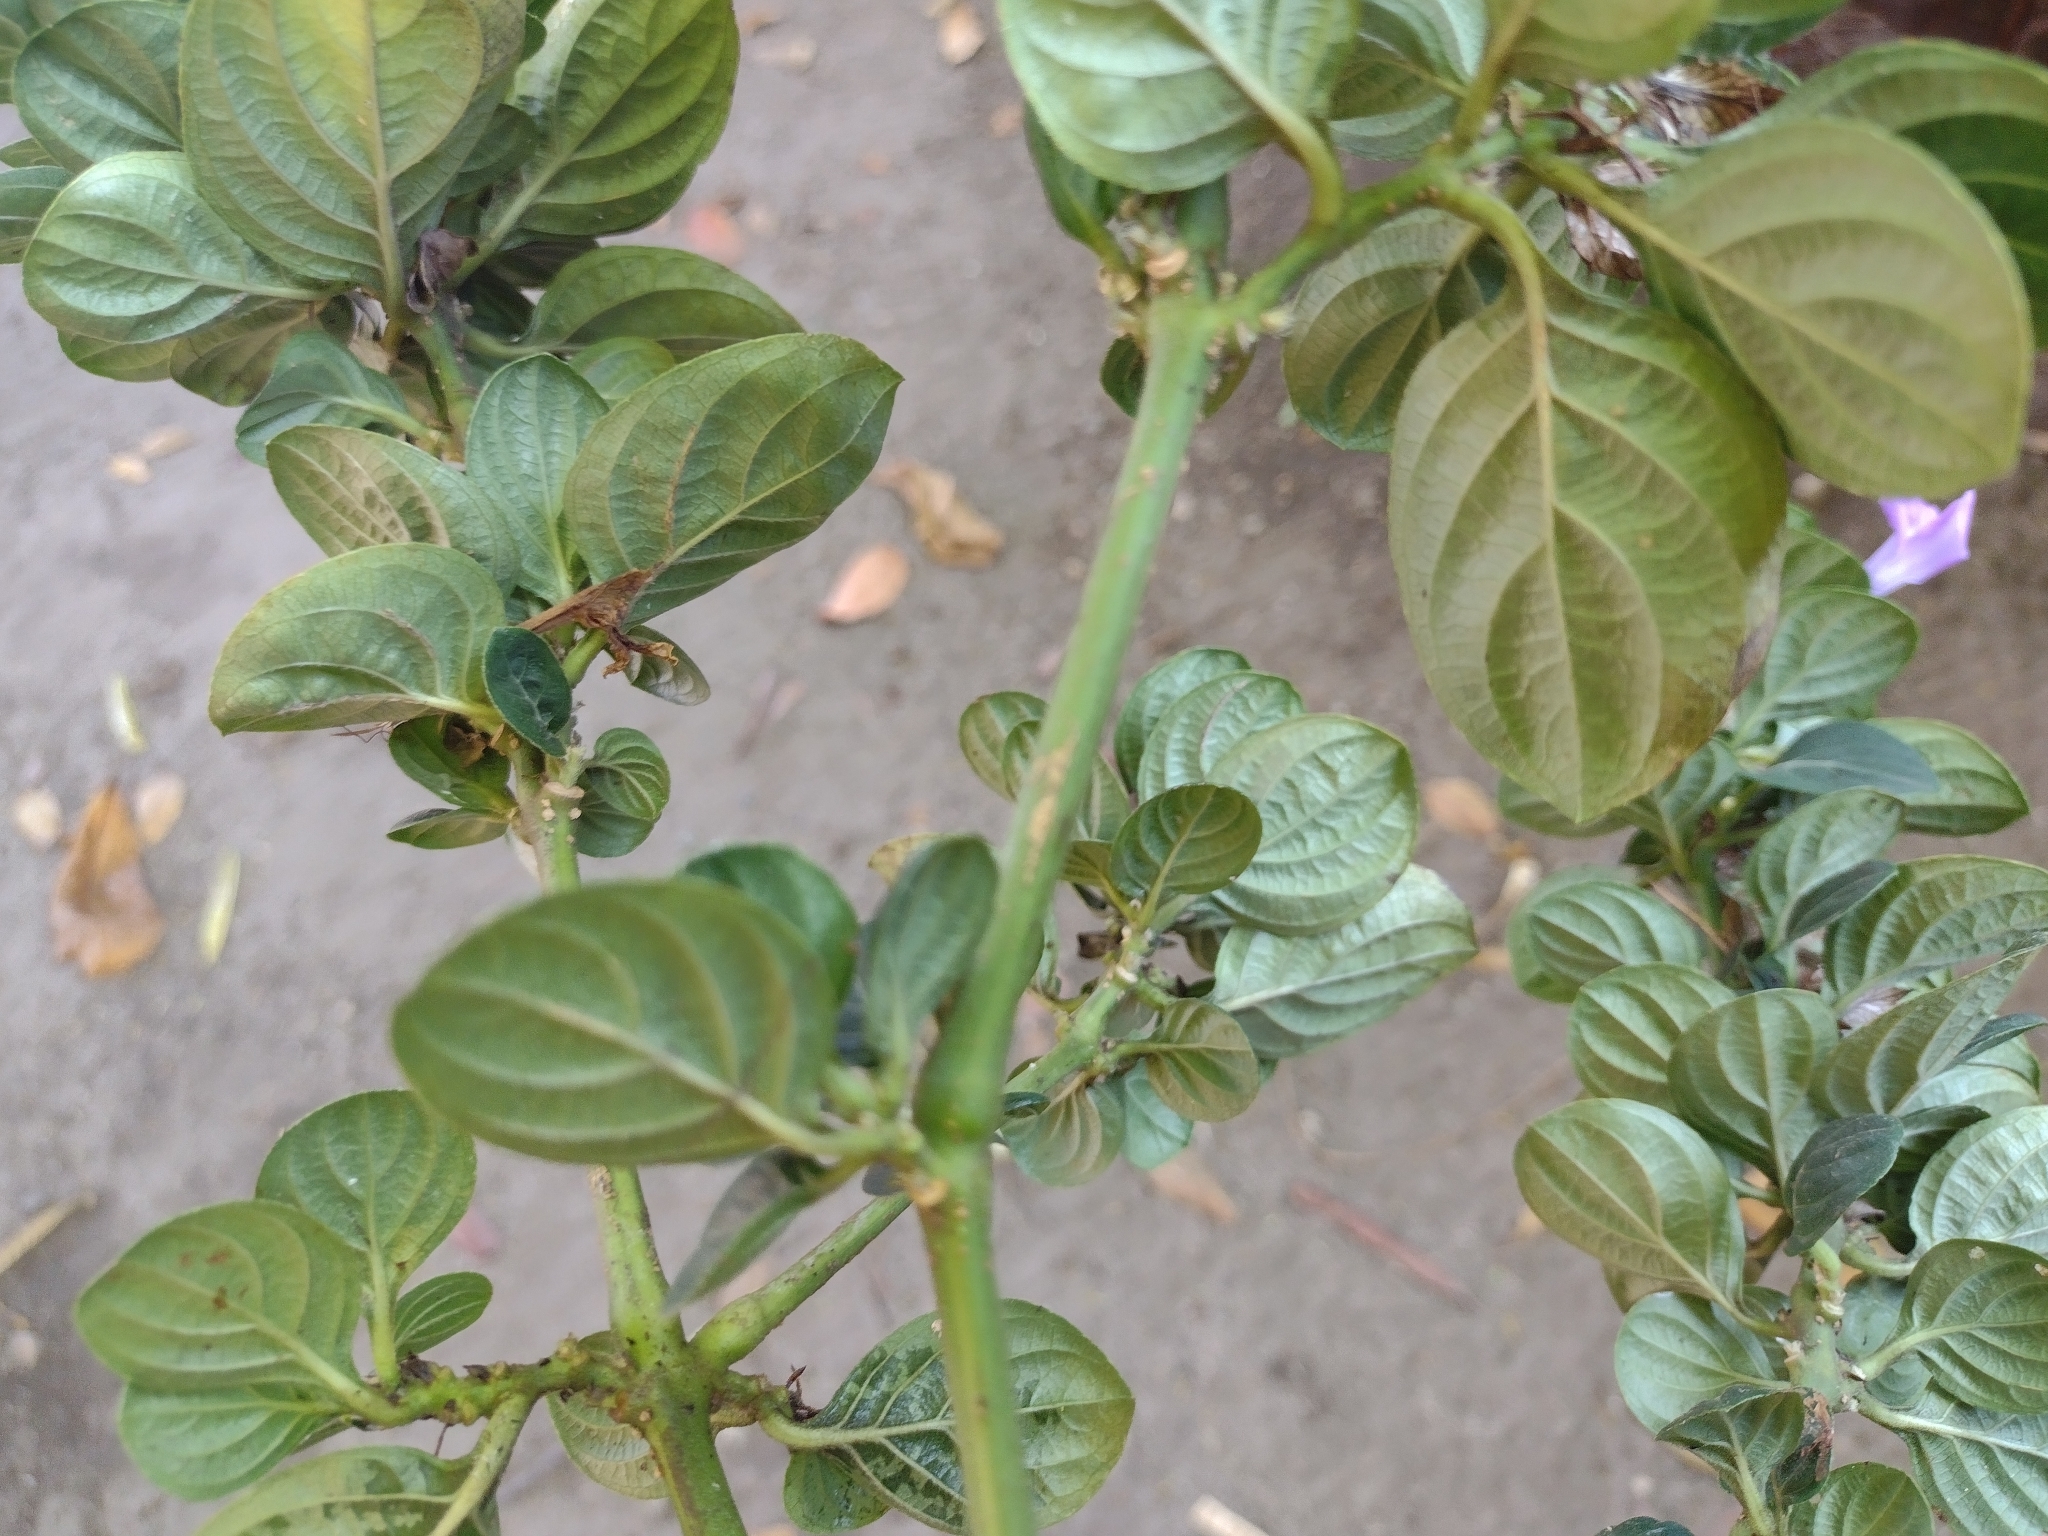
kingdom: Plantae
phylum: Tracheophyta
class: Magnoliopsida
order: Lamiales
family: Acanthaceae
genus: Barleria
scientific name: Barleria cristata
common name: Crested philippine violet
